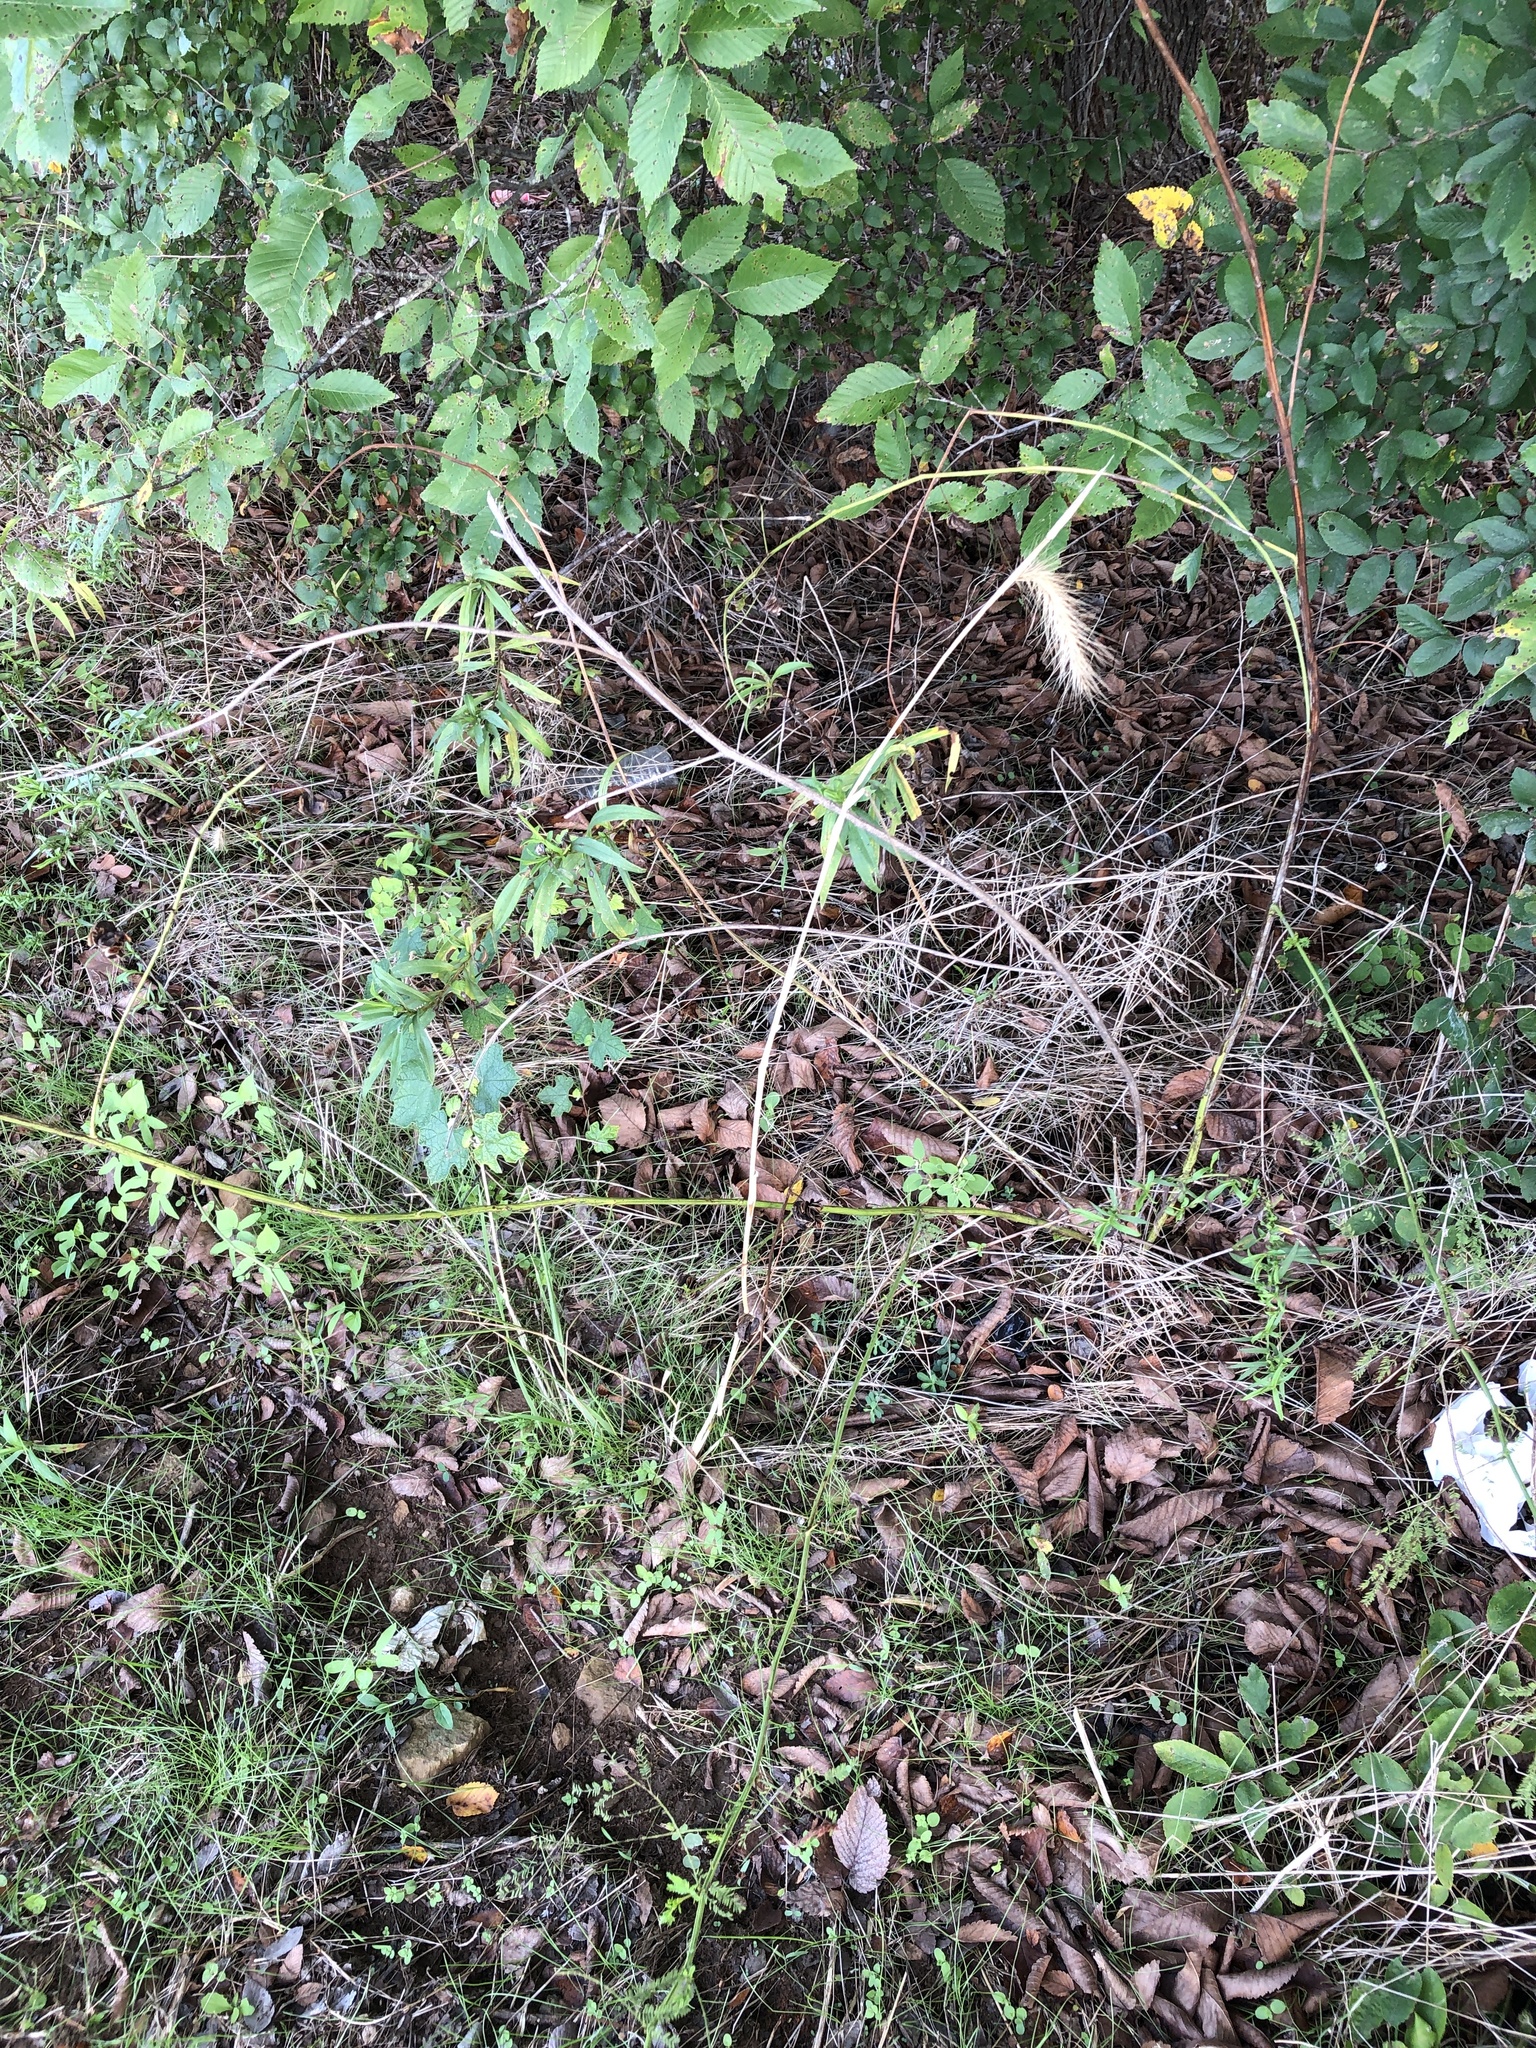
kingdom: Plantae
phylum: Tracheophyta
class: Liliopsida
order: Poales
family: Poaceae
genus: Elymus
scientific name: Elymus canadensis
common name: Canada wild rye
